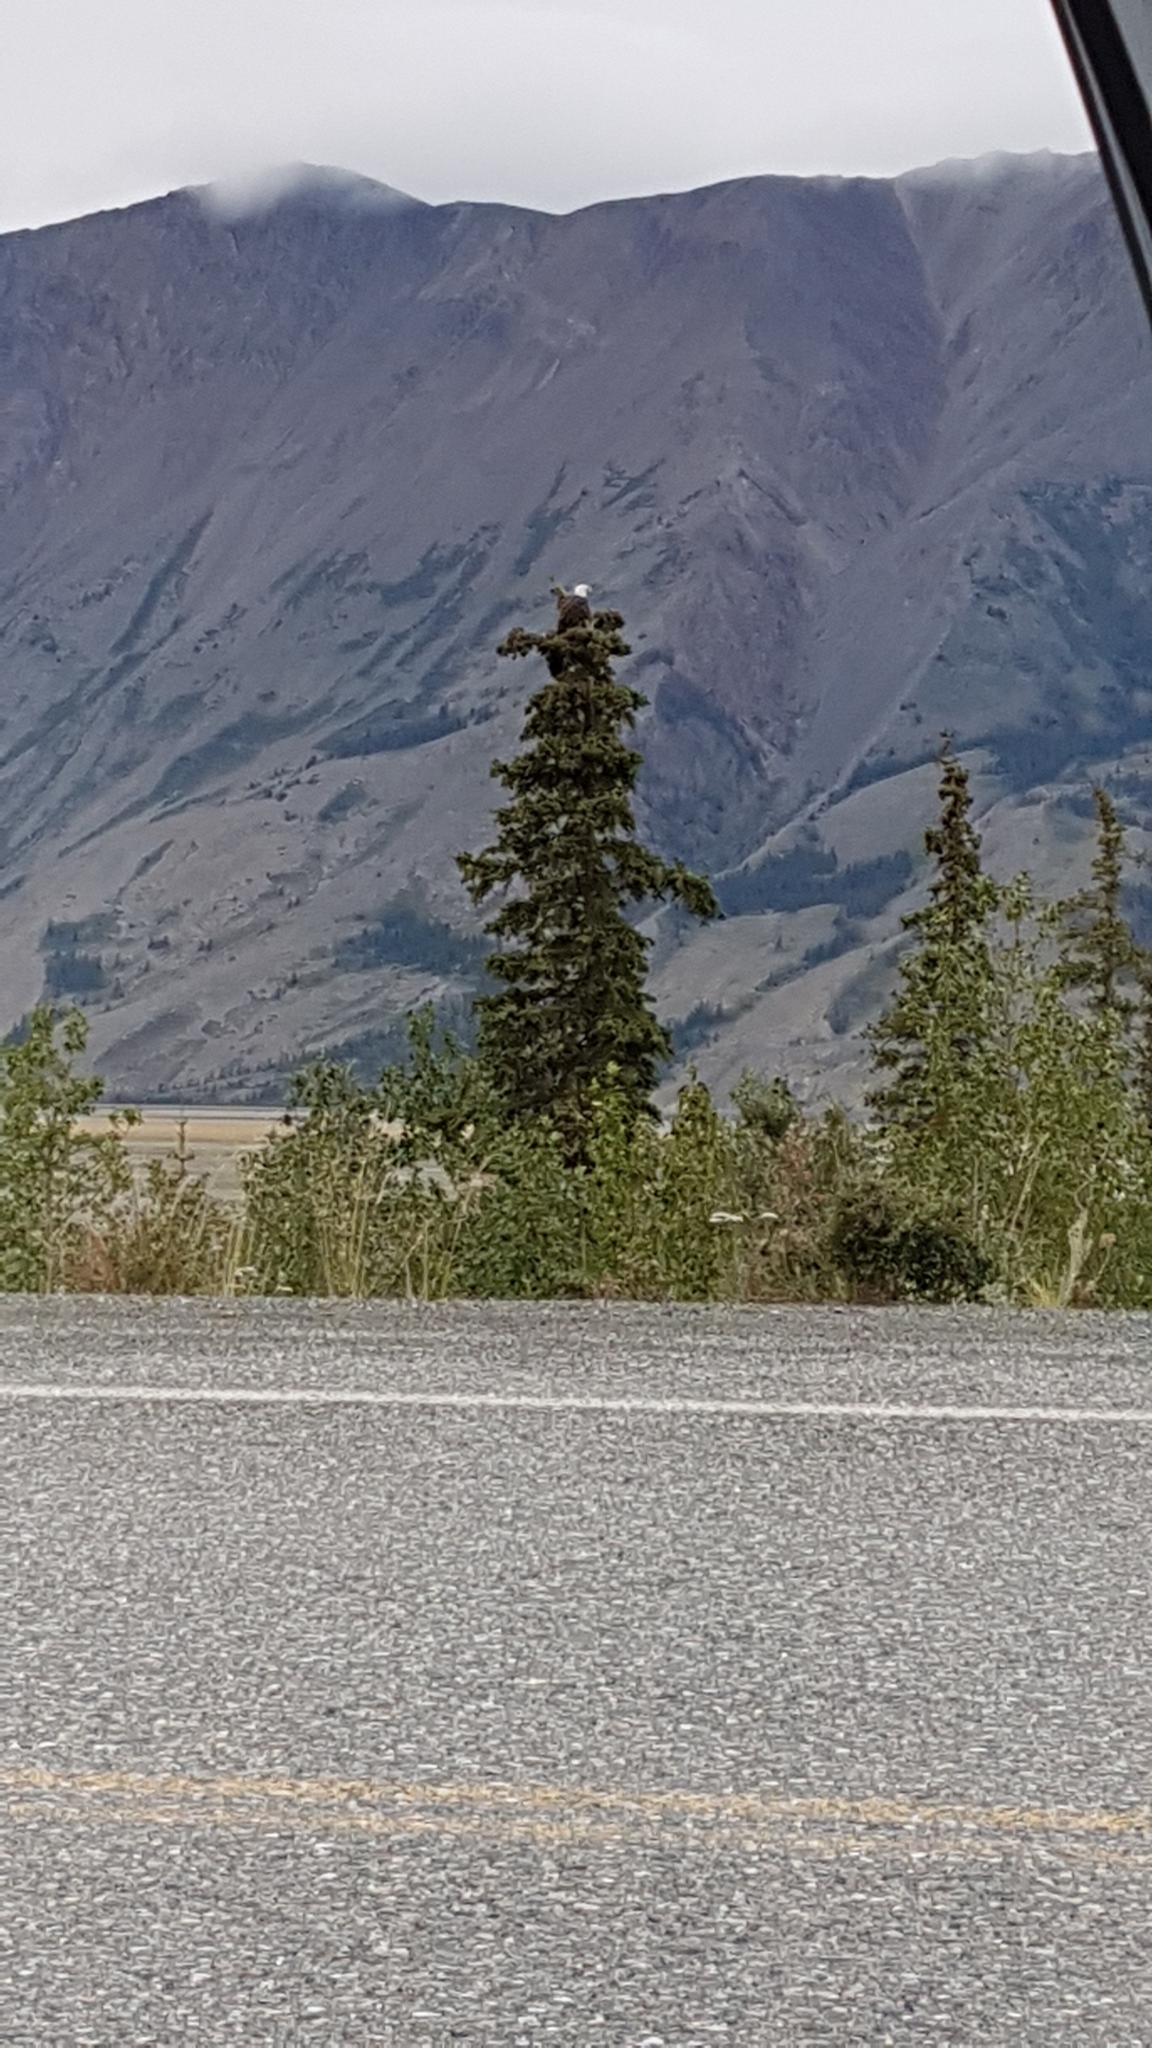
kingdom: Animalia
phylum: Chordata
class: Aves
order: Accipitriformes
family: Accipitridae
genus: Haliaeetus
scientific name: Haliaeetus leucocephalus
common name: Bald eagle
